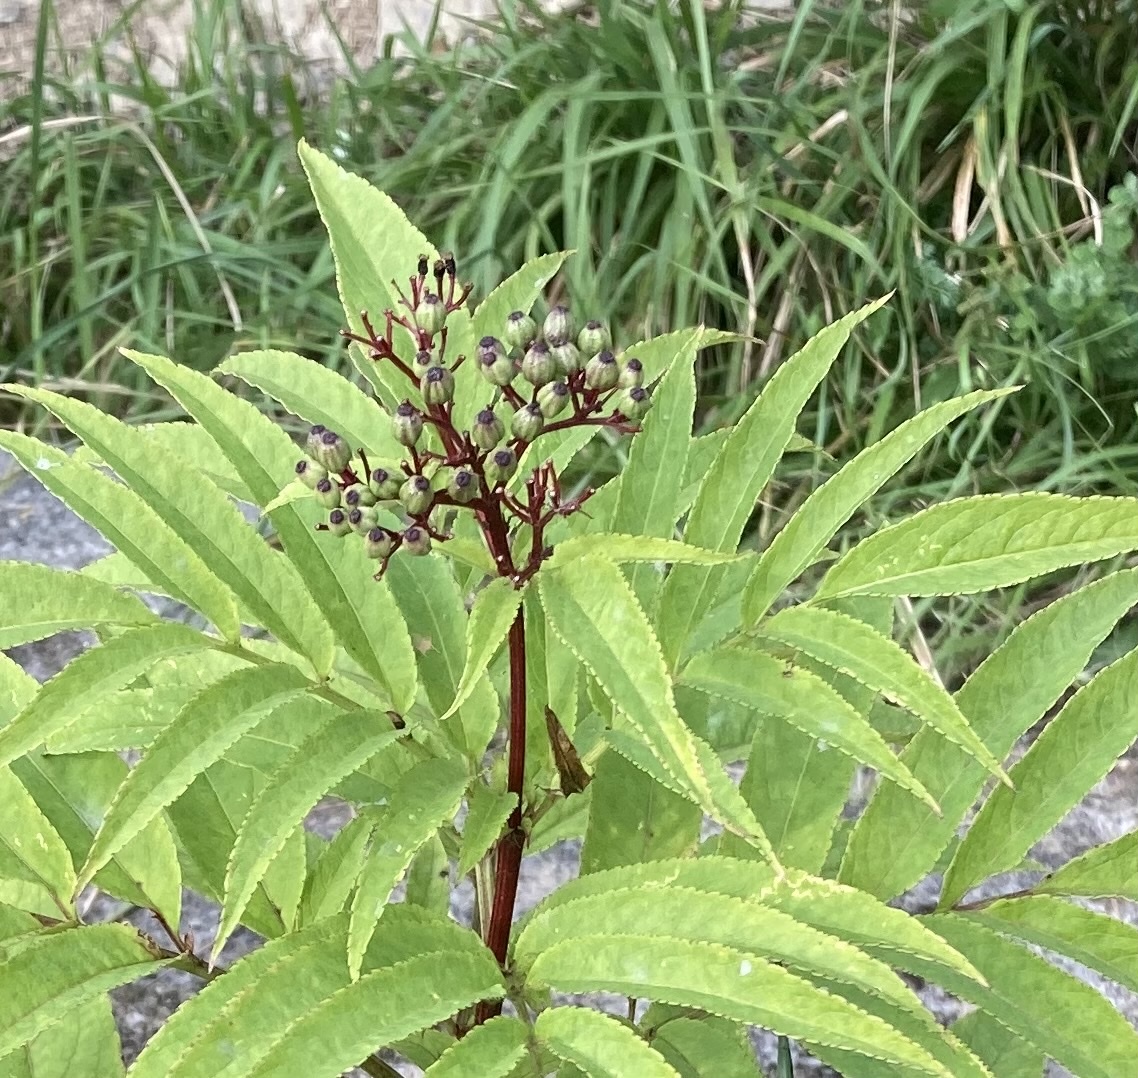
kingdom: Plantae
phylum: Tracheophyta
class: Magnoliopsida
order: Dipsacales
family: Viburnaceae
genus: Sambucus
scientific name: Sambucus ebulus
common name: Dwarf elder
